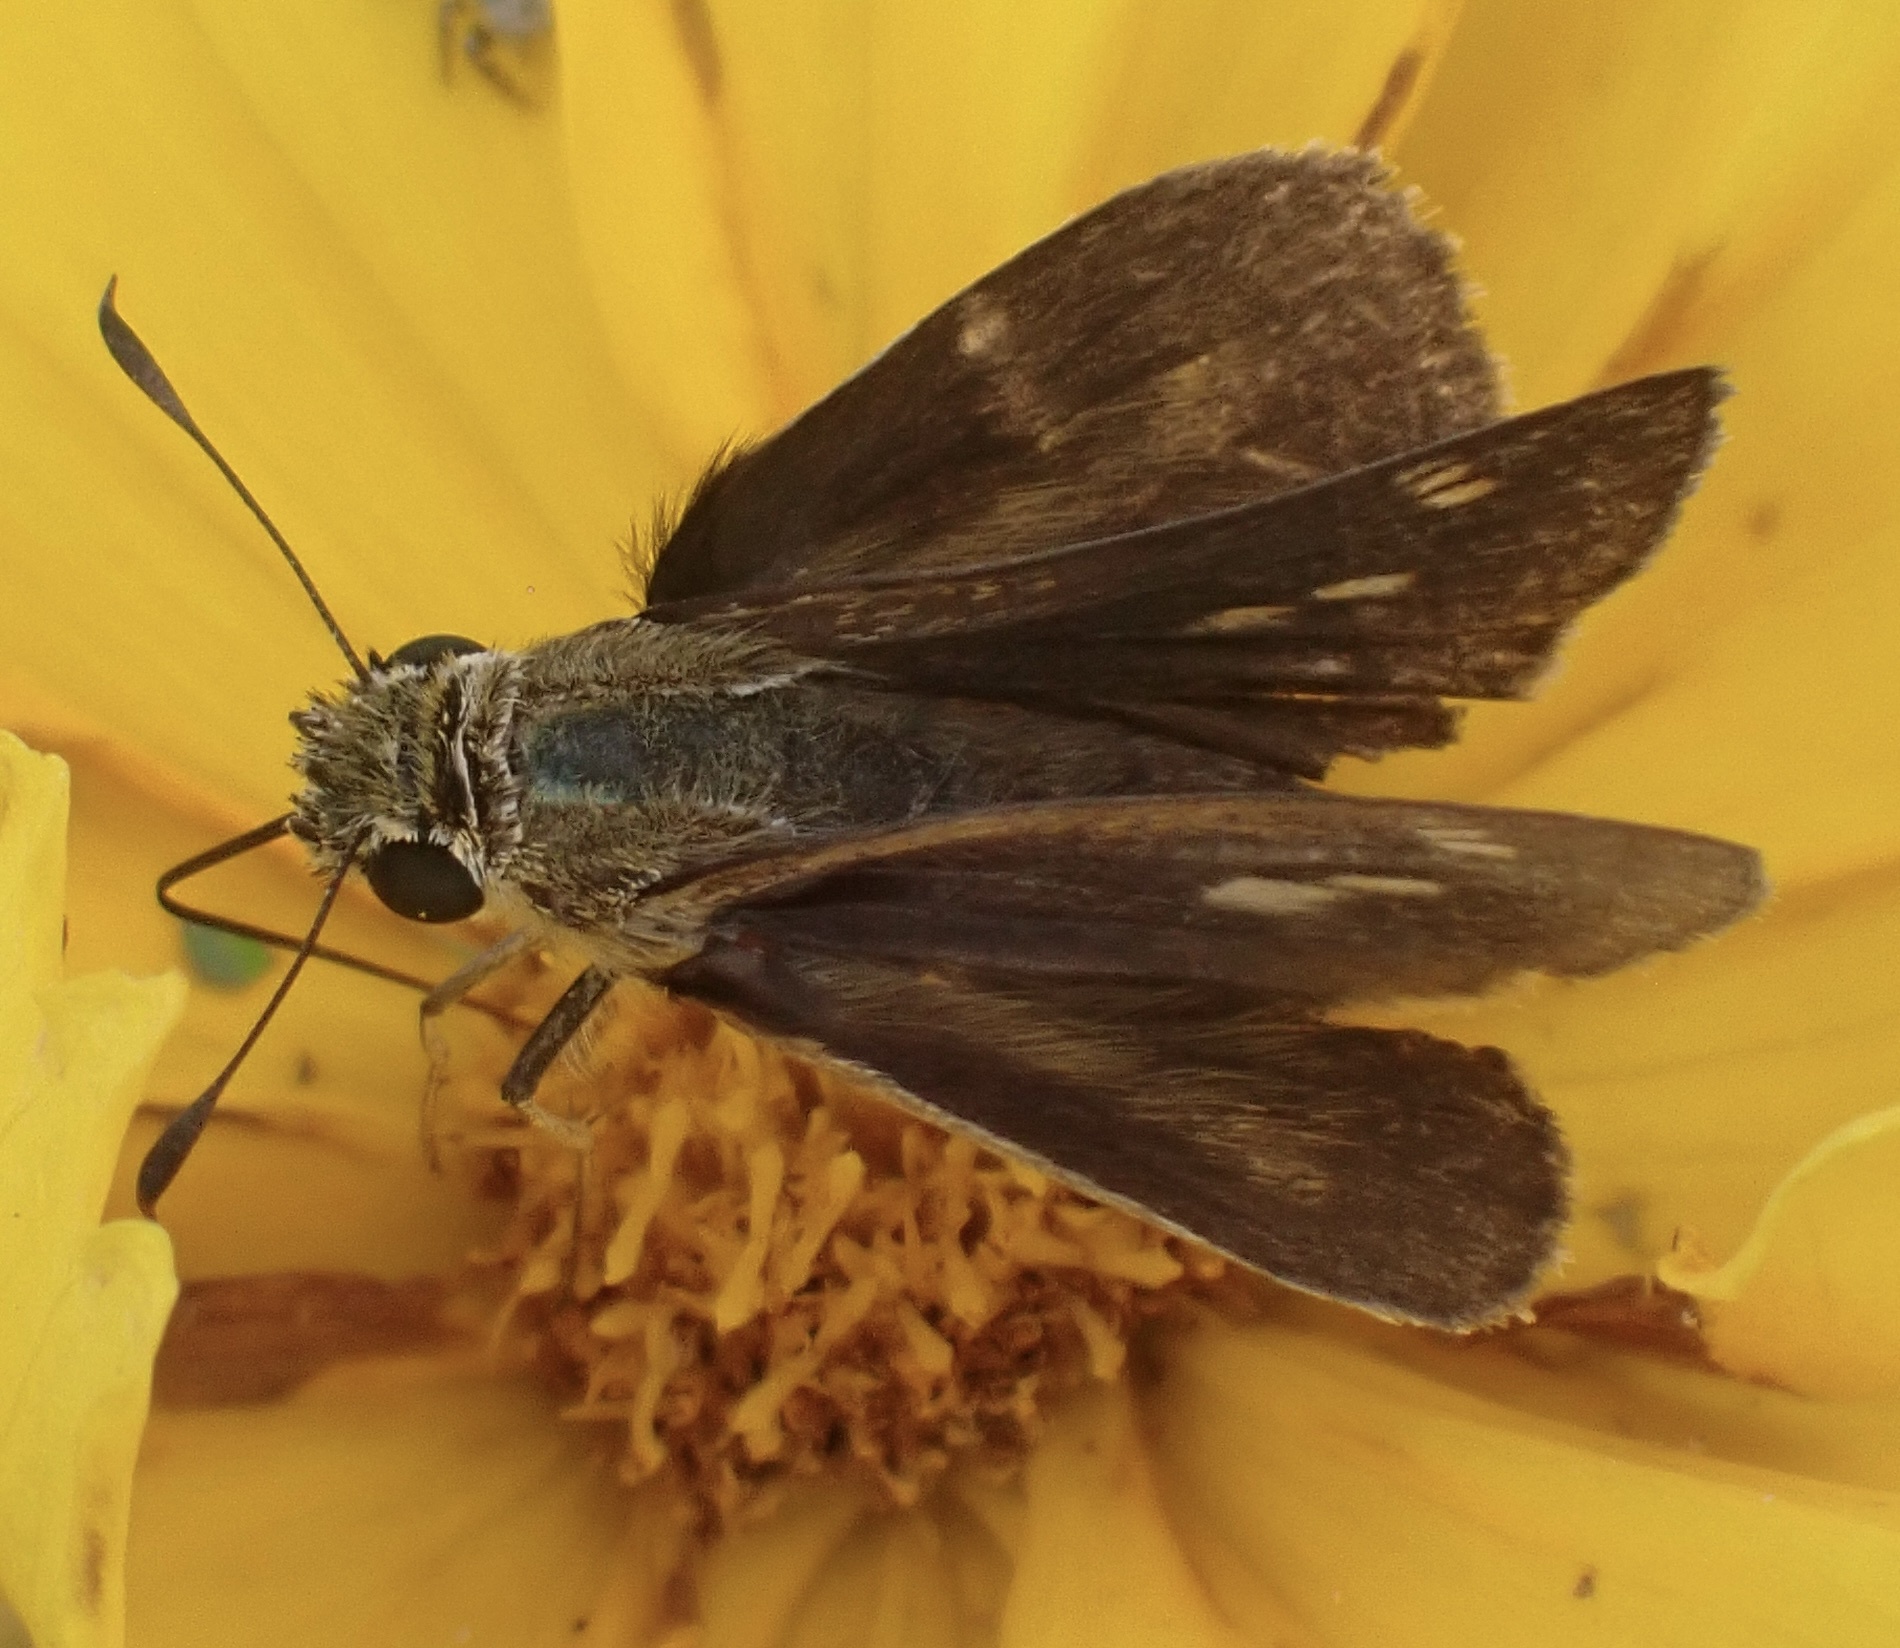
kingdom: Animalia
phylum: Arthropoda
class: Insecta
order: Lepidoptera
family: Hesperiidae
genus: Polites
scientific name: Polites otho
